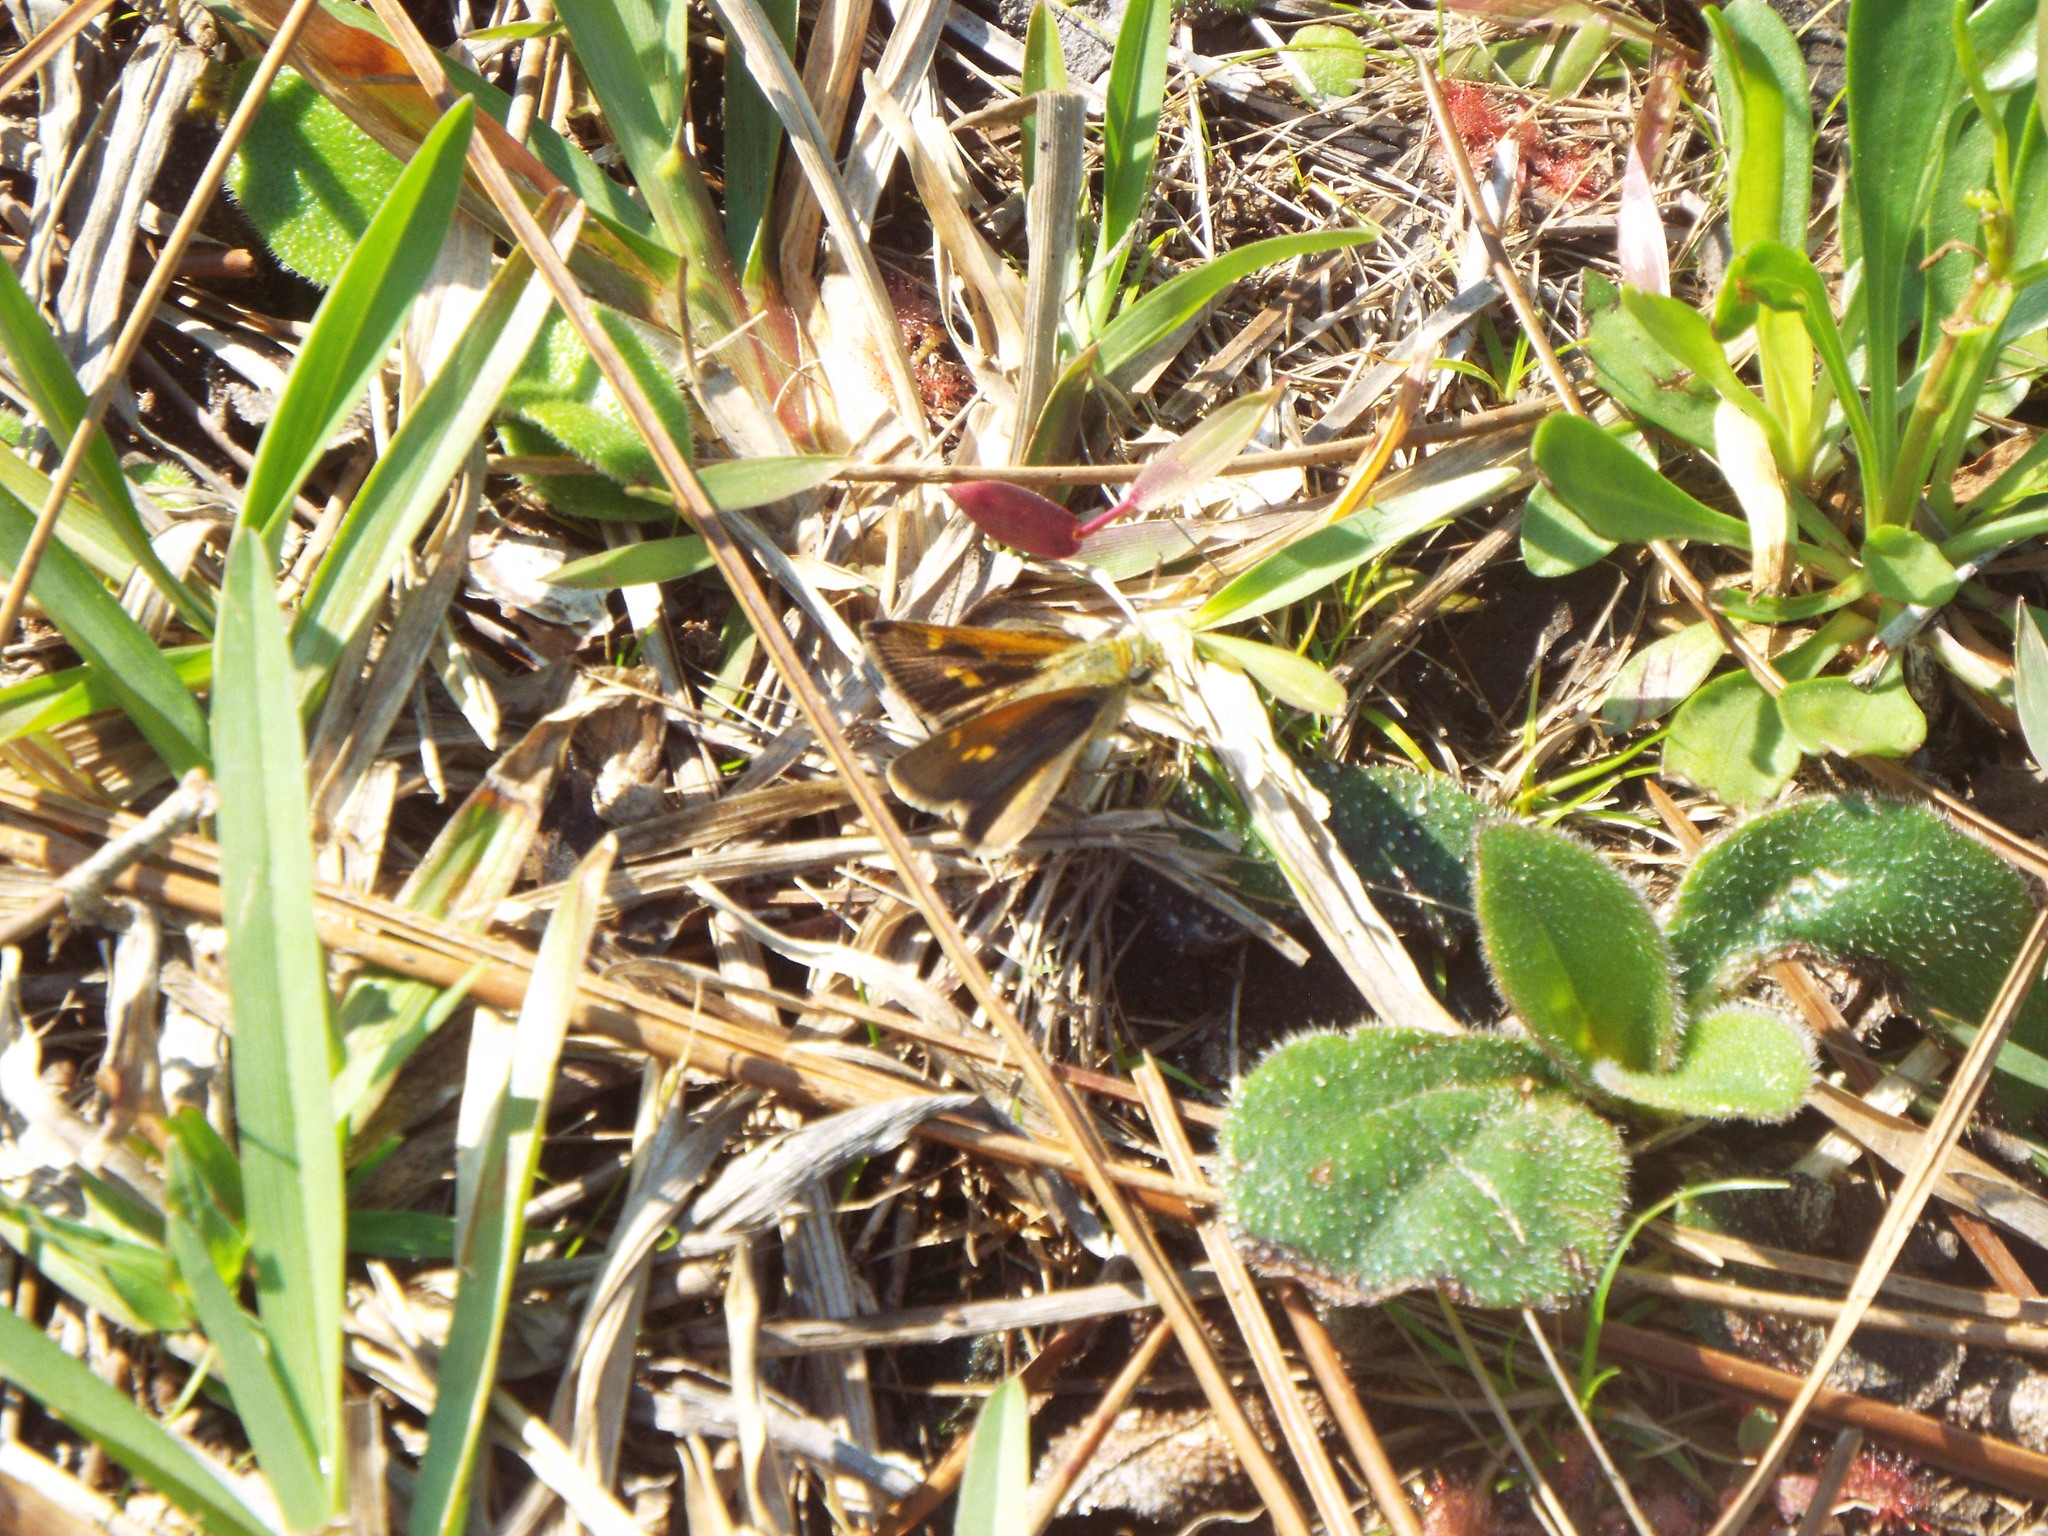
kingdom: Animalia
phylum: Arthropoda
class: Insecta
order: Lepidoptera
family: Hesperiidae
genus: Polites
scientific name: Polites themistocles
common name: Tawny-edged skipper
